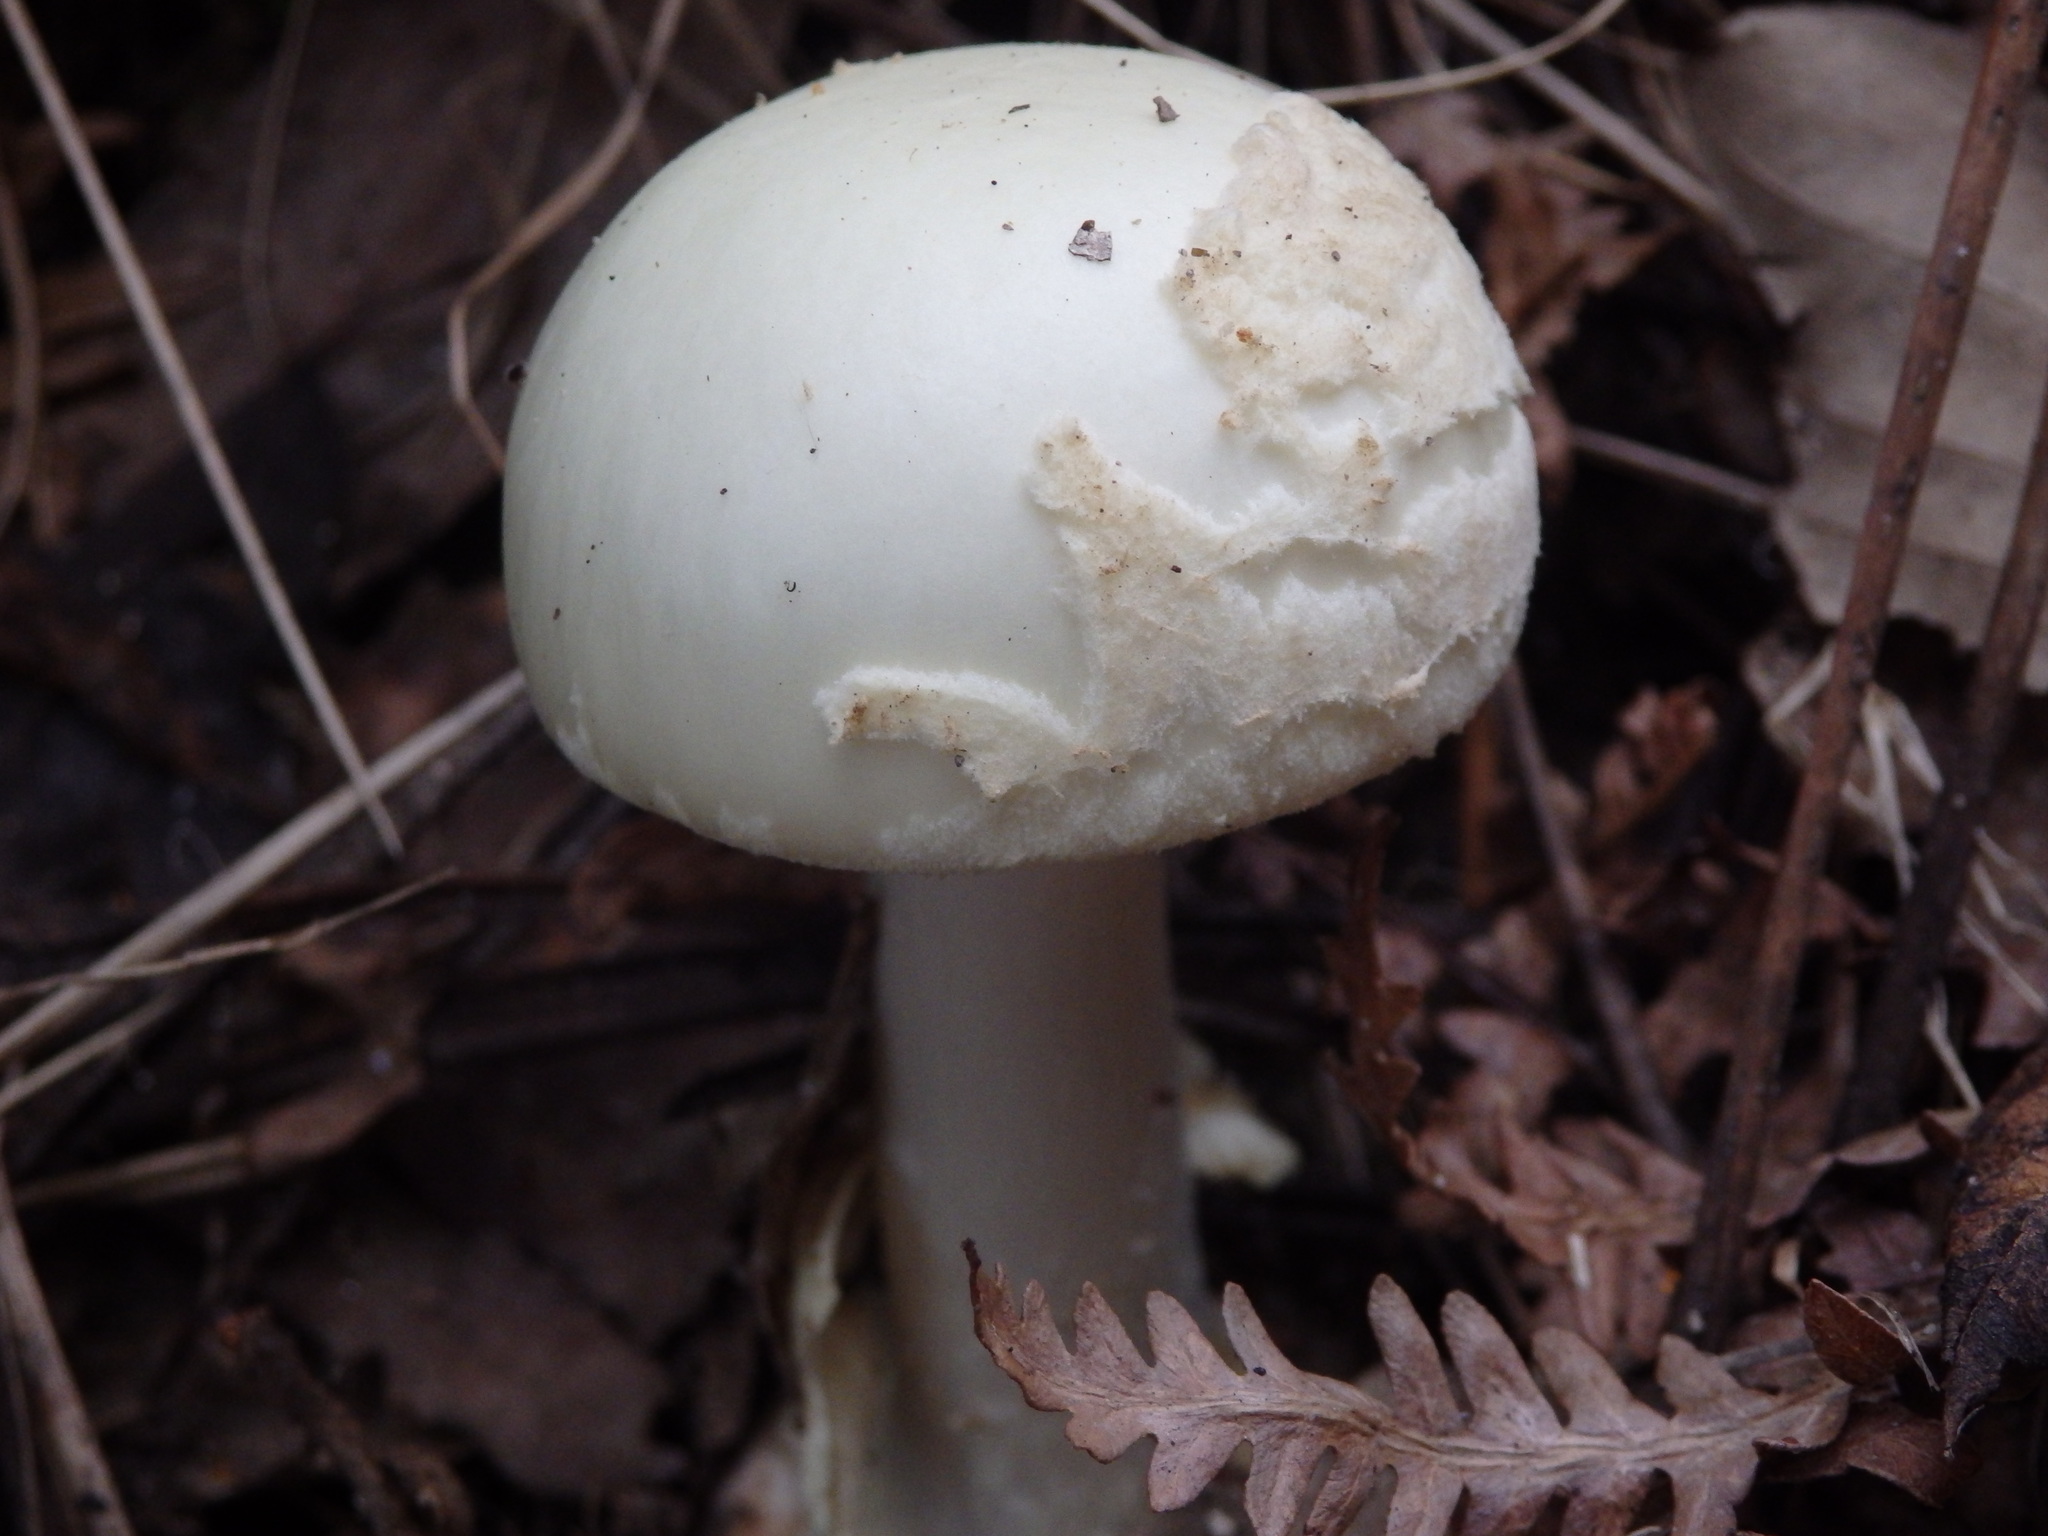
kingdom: Fungi
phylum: Basidiomycota
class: Agaricomycetes
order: Agaricales
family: Amanitaceae
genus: Amanita
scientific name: Amanita citrina
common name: False death-cap
